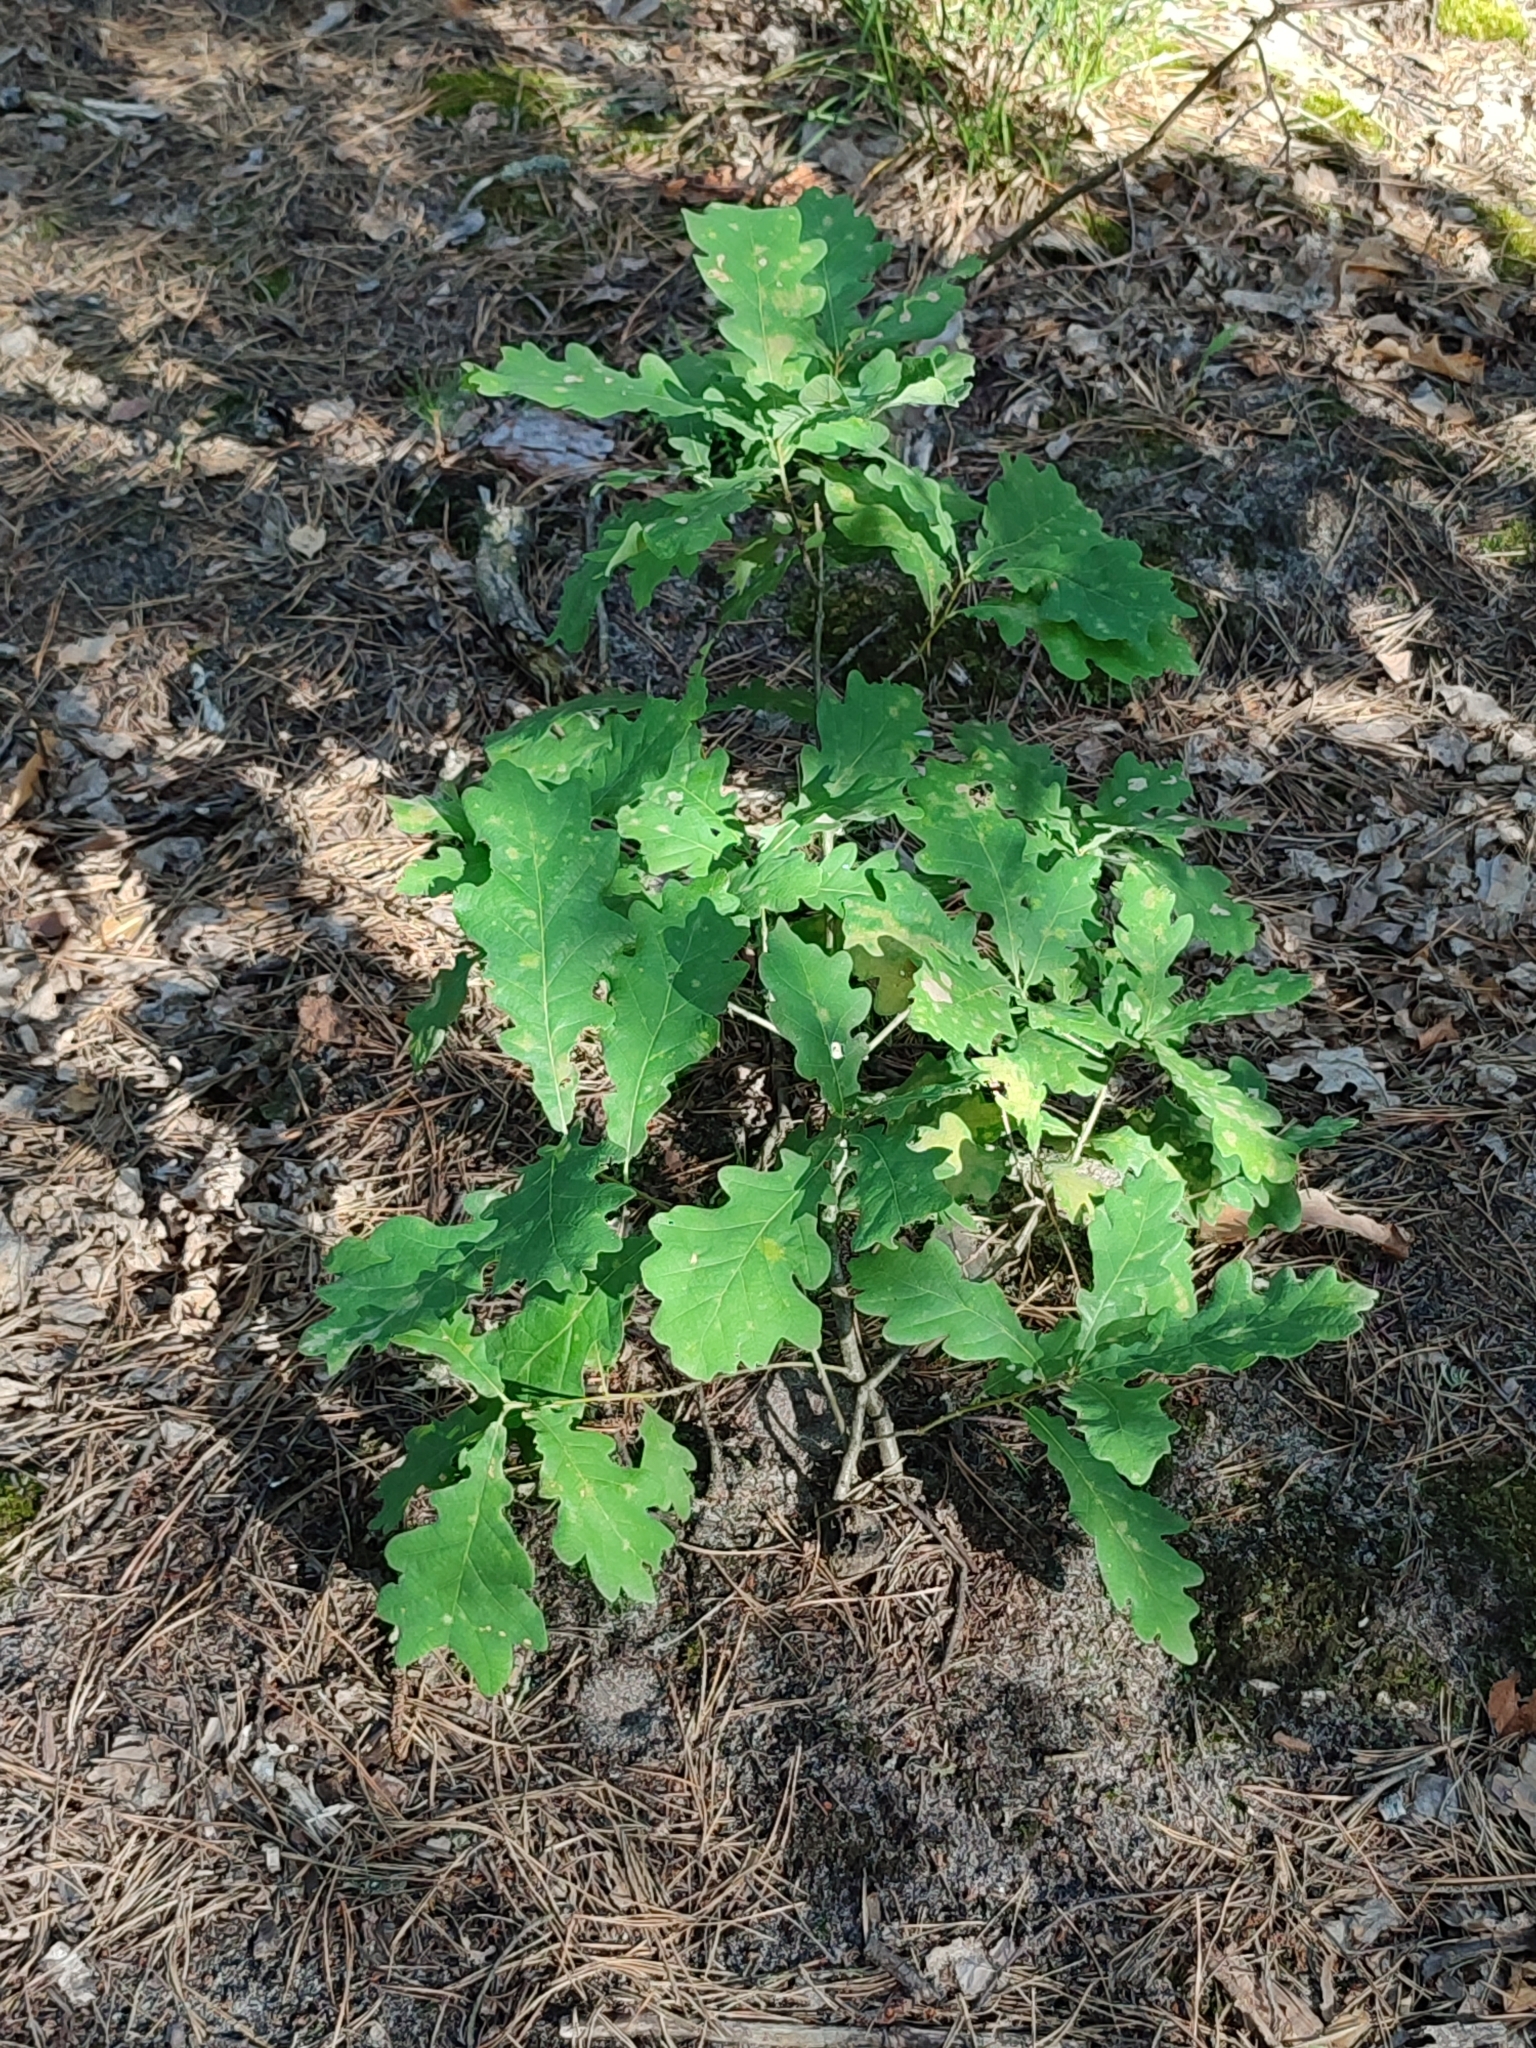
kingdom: Plantae
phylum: Tracheophyta
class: Magnoliopsida
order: Fagales
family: Fagaceae
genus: Quercus
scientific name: Quercus robur
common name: Pedunculate oak
